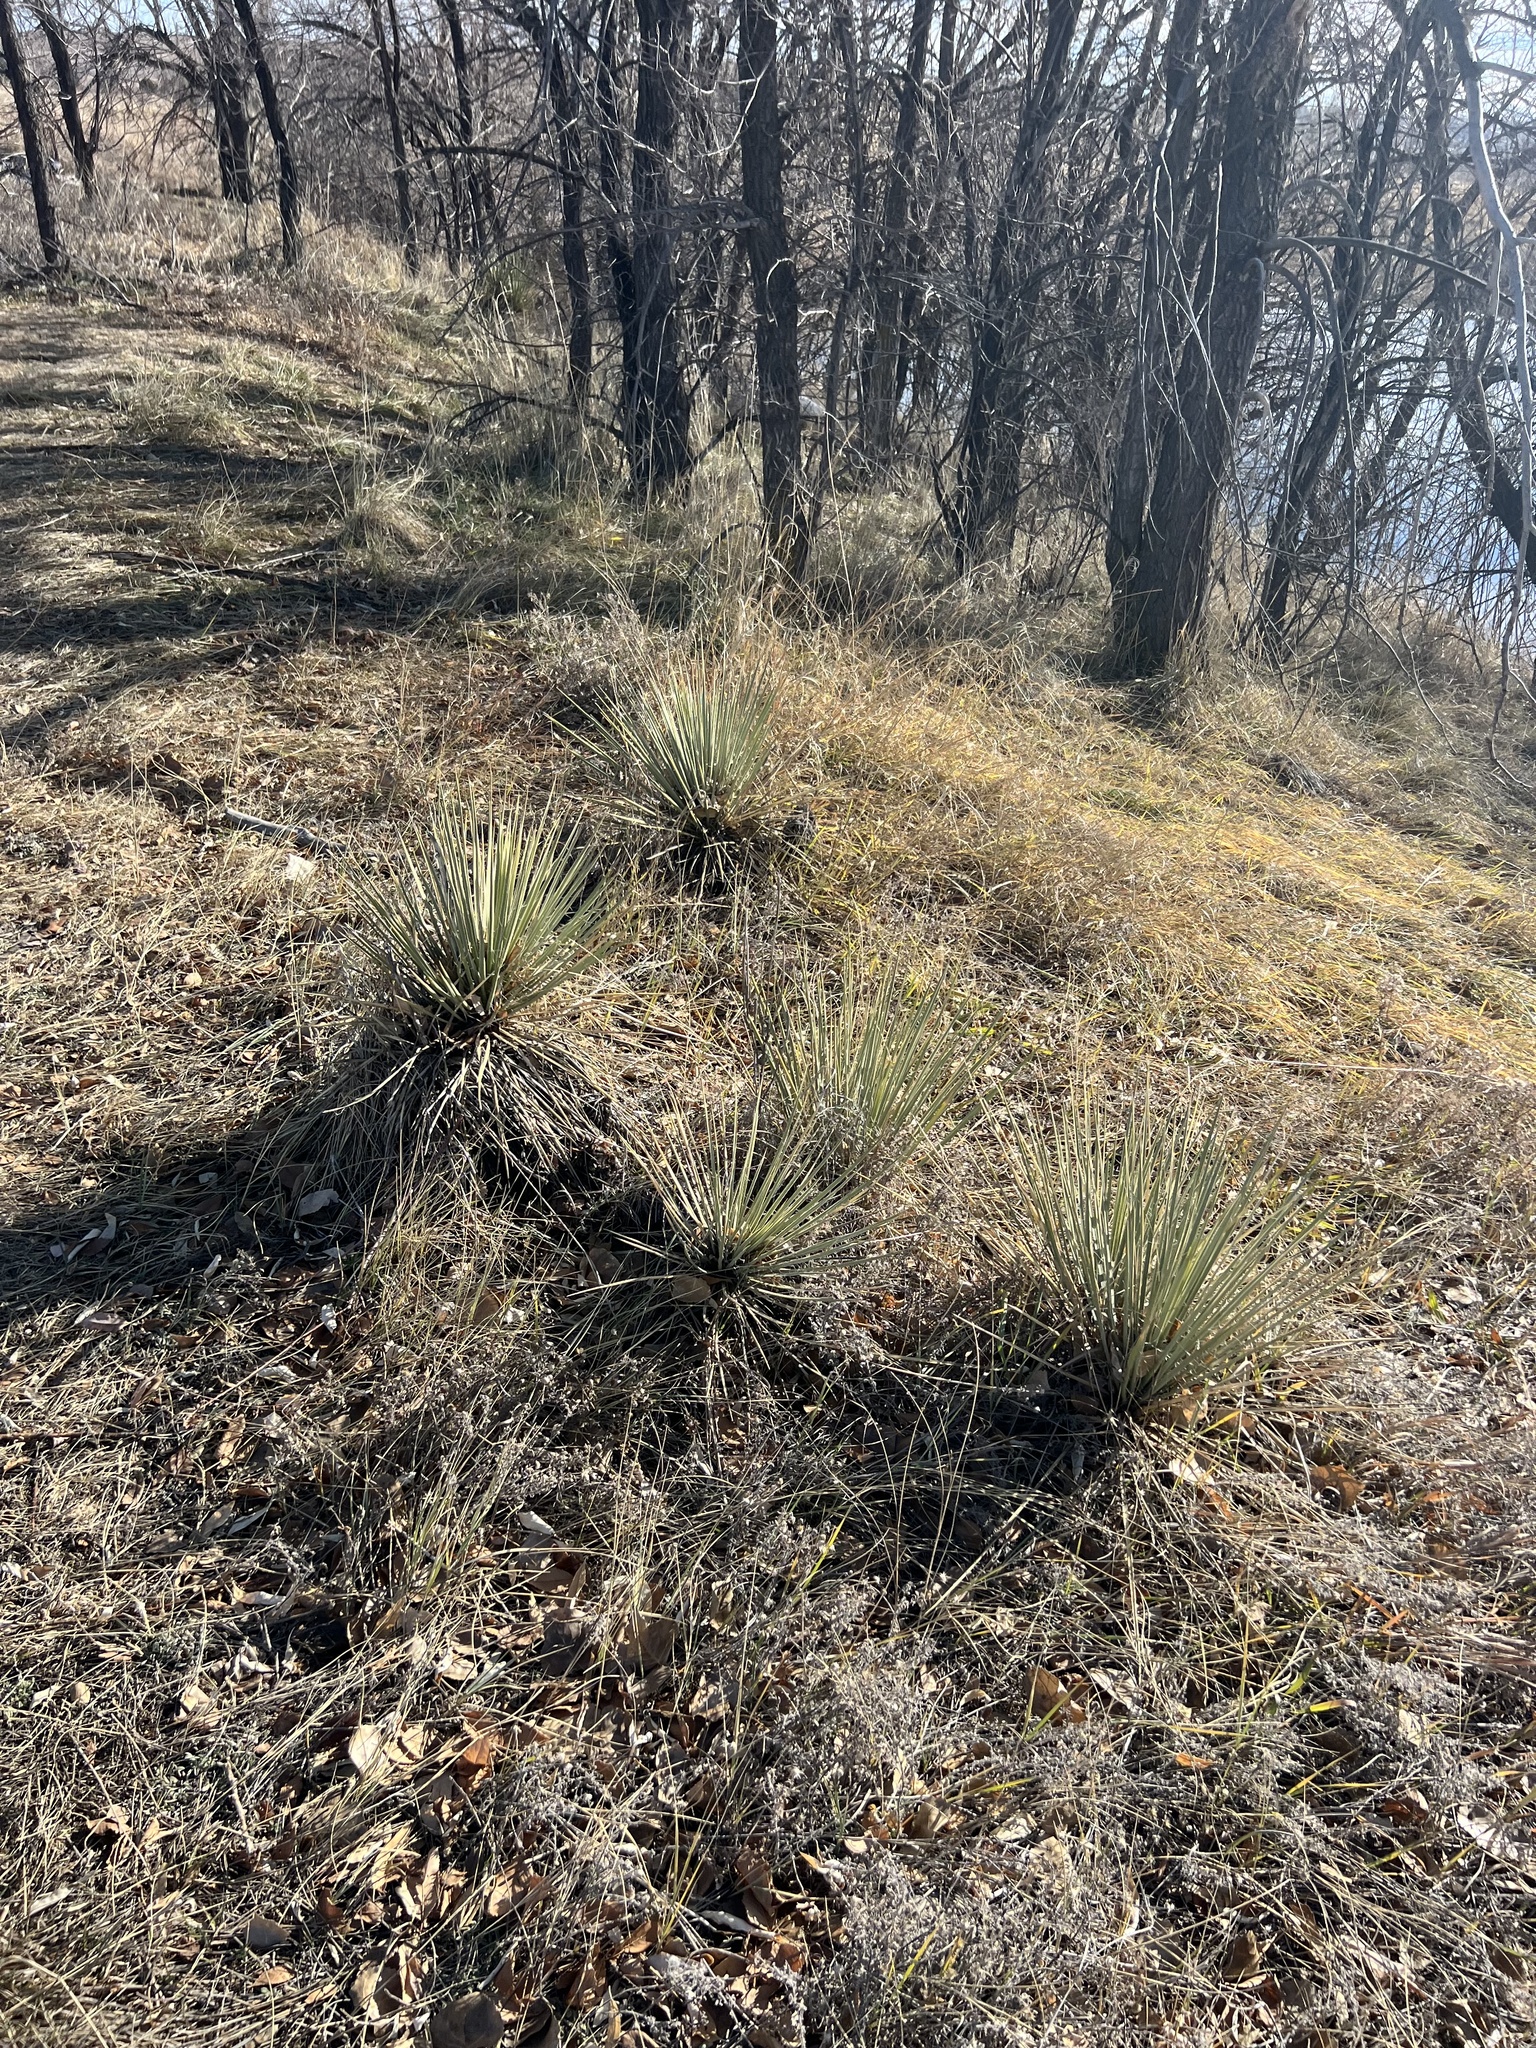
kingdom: Plantae
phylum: Tracheophyta
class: Liliopsida
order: Asparagales
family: Asparagaceae
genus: Yucca
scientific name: Yucca glauca
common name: Great plains yucca
